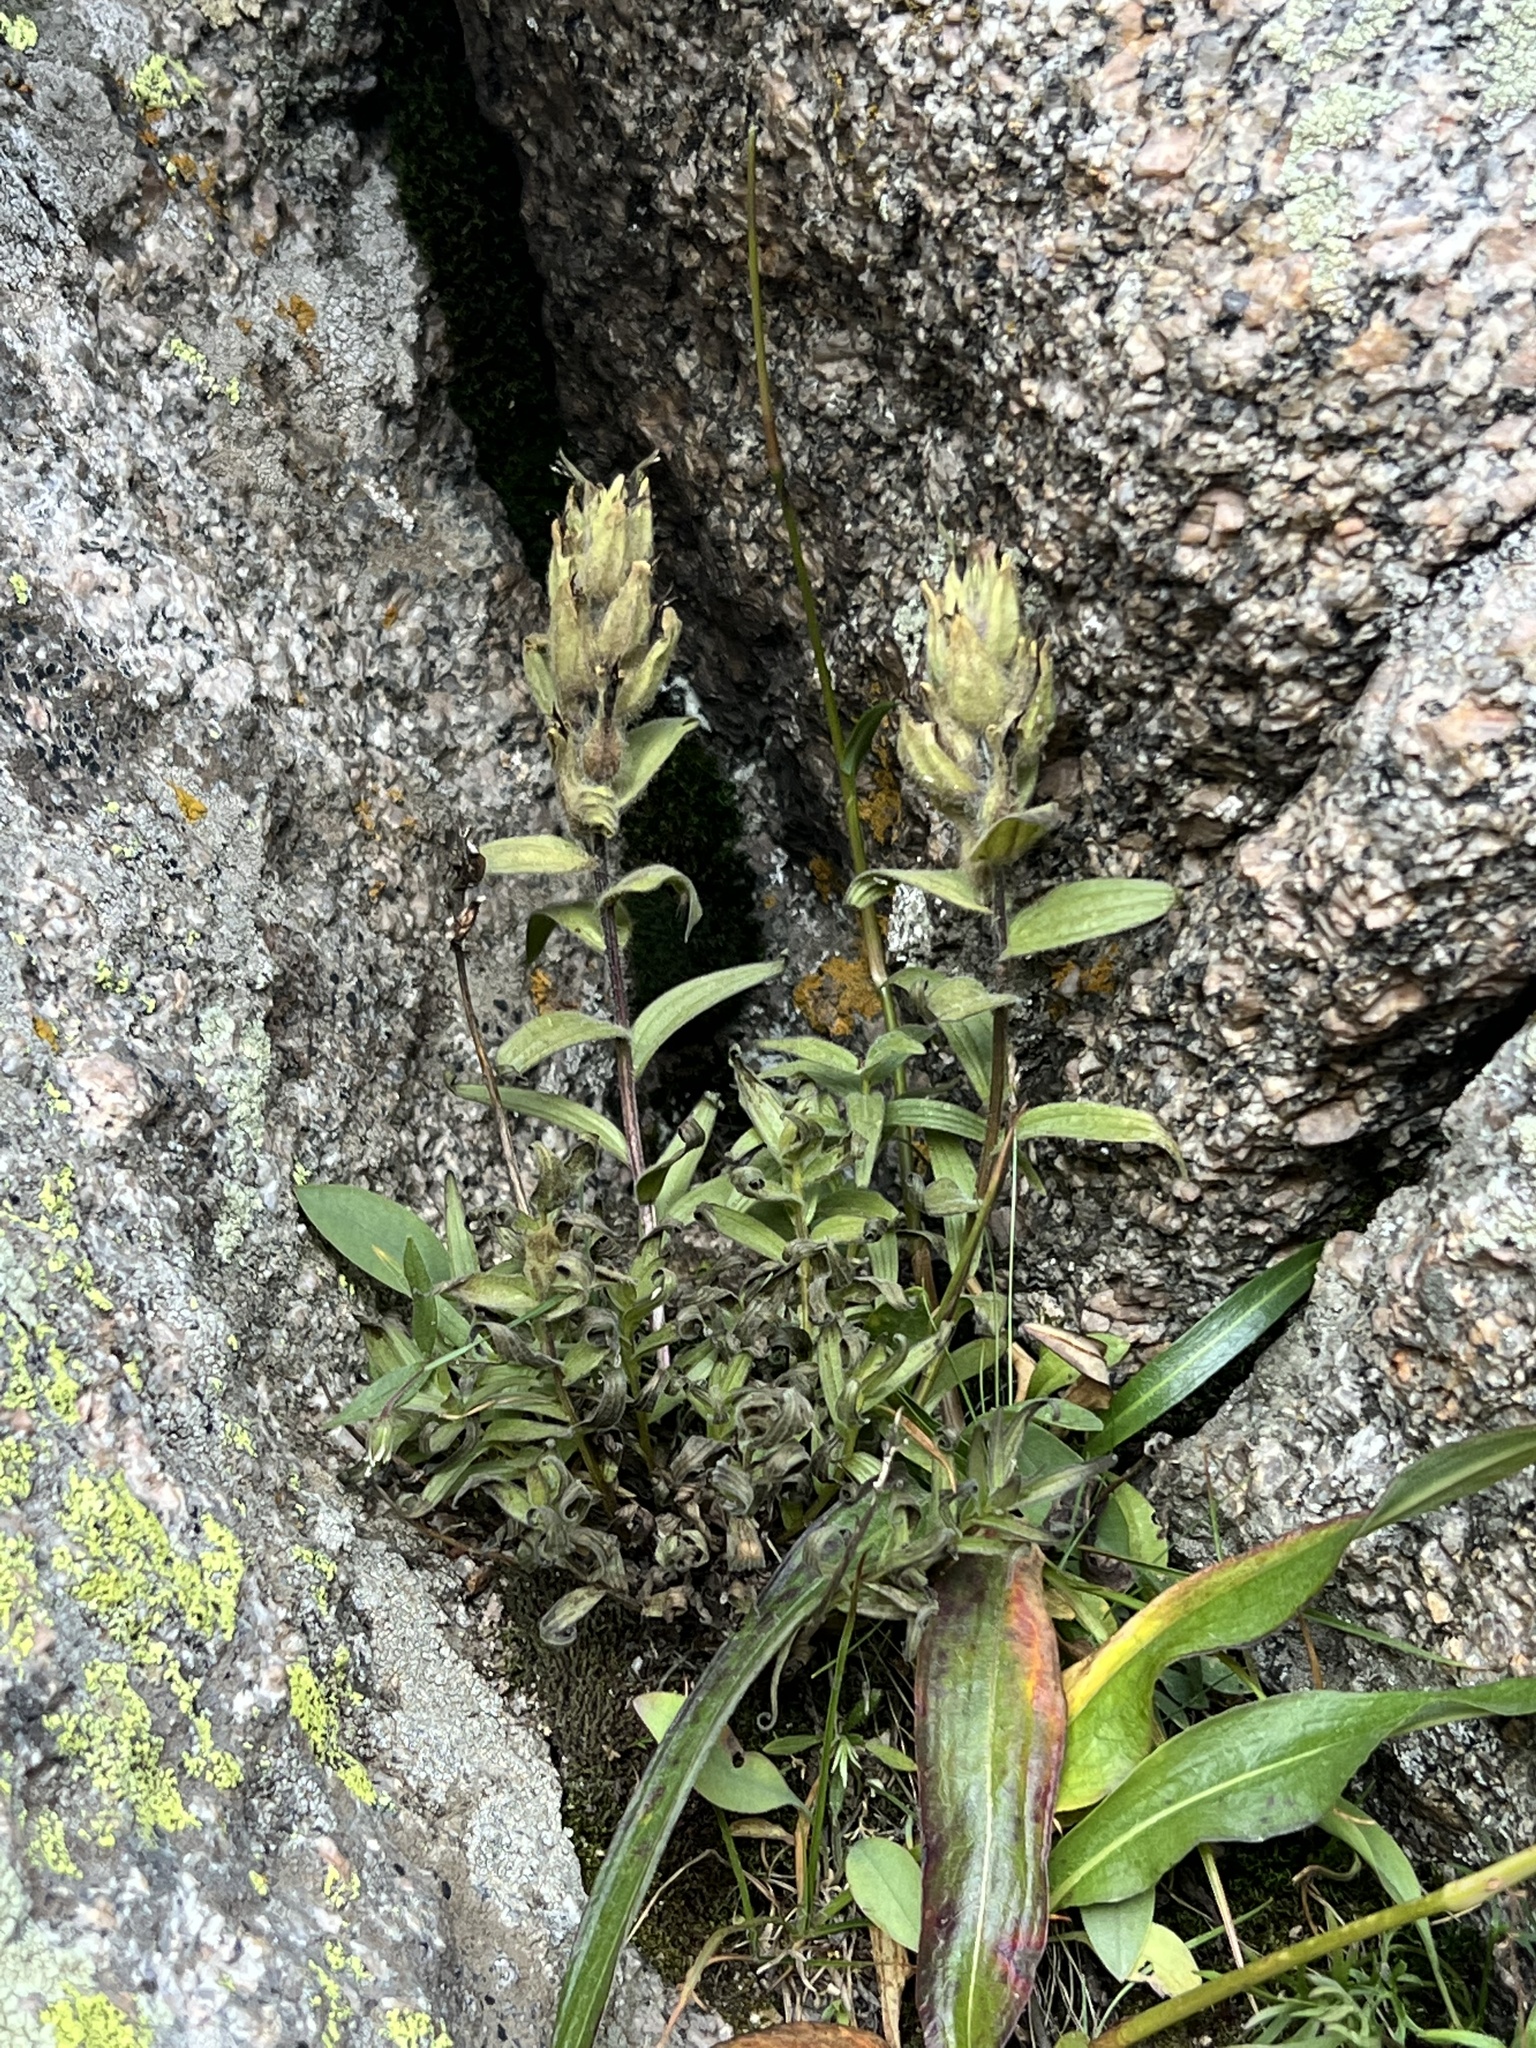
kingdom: Plantae
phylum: Tracheophyta
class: Magnoliopsida
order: Lamiales
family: Orobanchaceae
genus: Castilleja
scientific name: Castilleja septentrionalis
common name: Northeastern paintbrush
